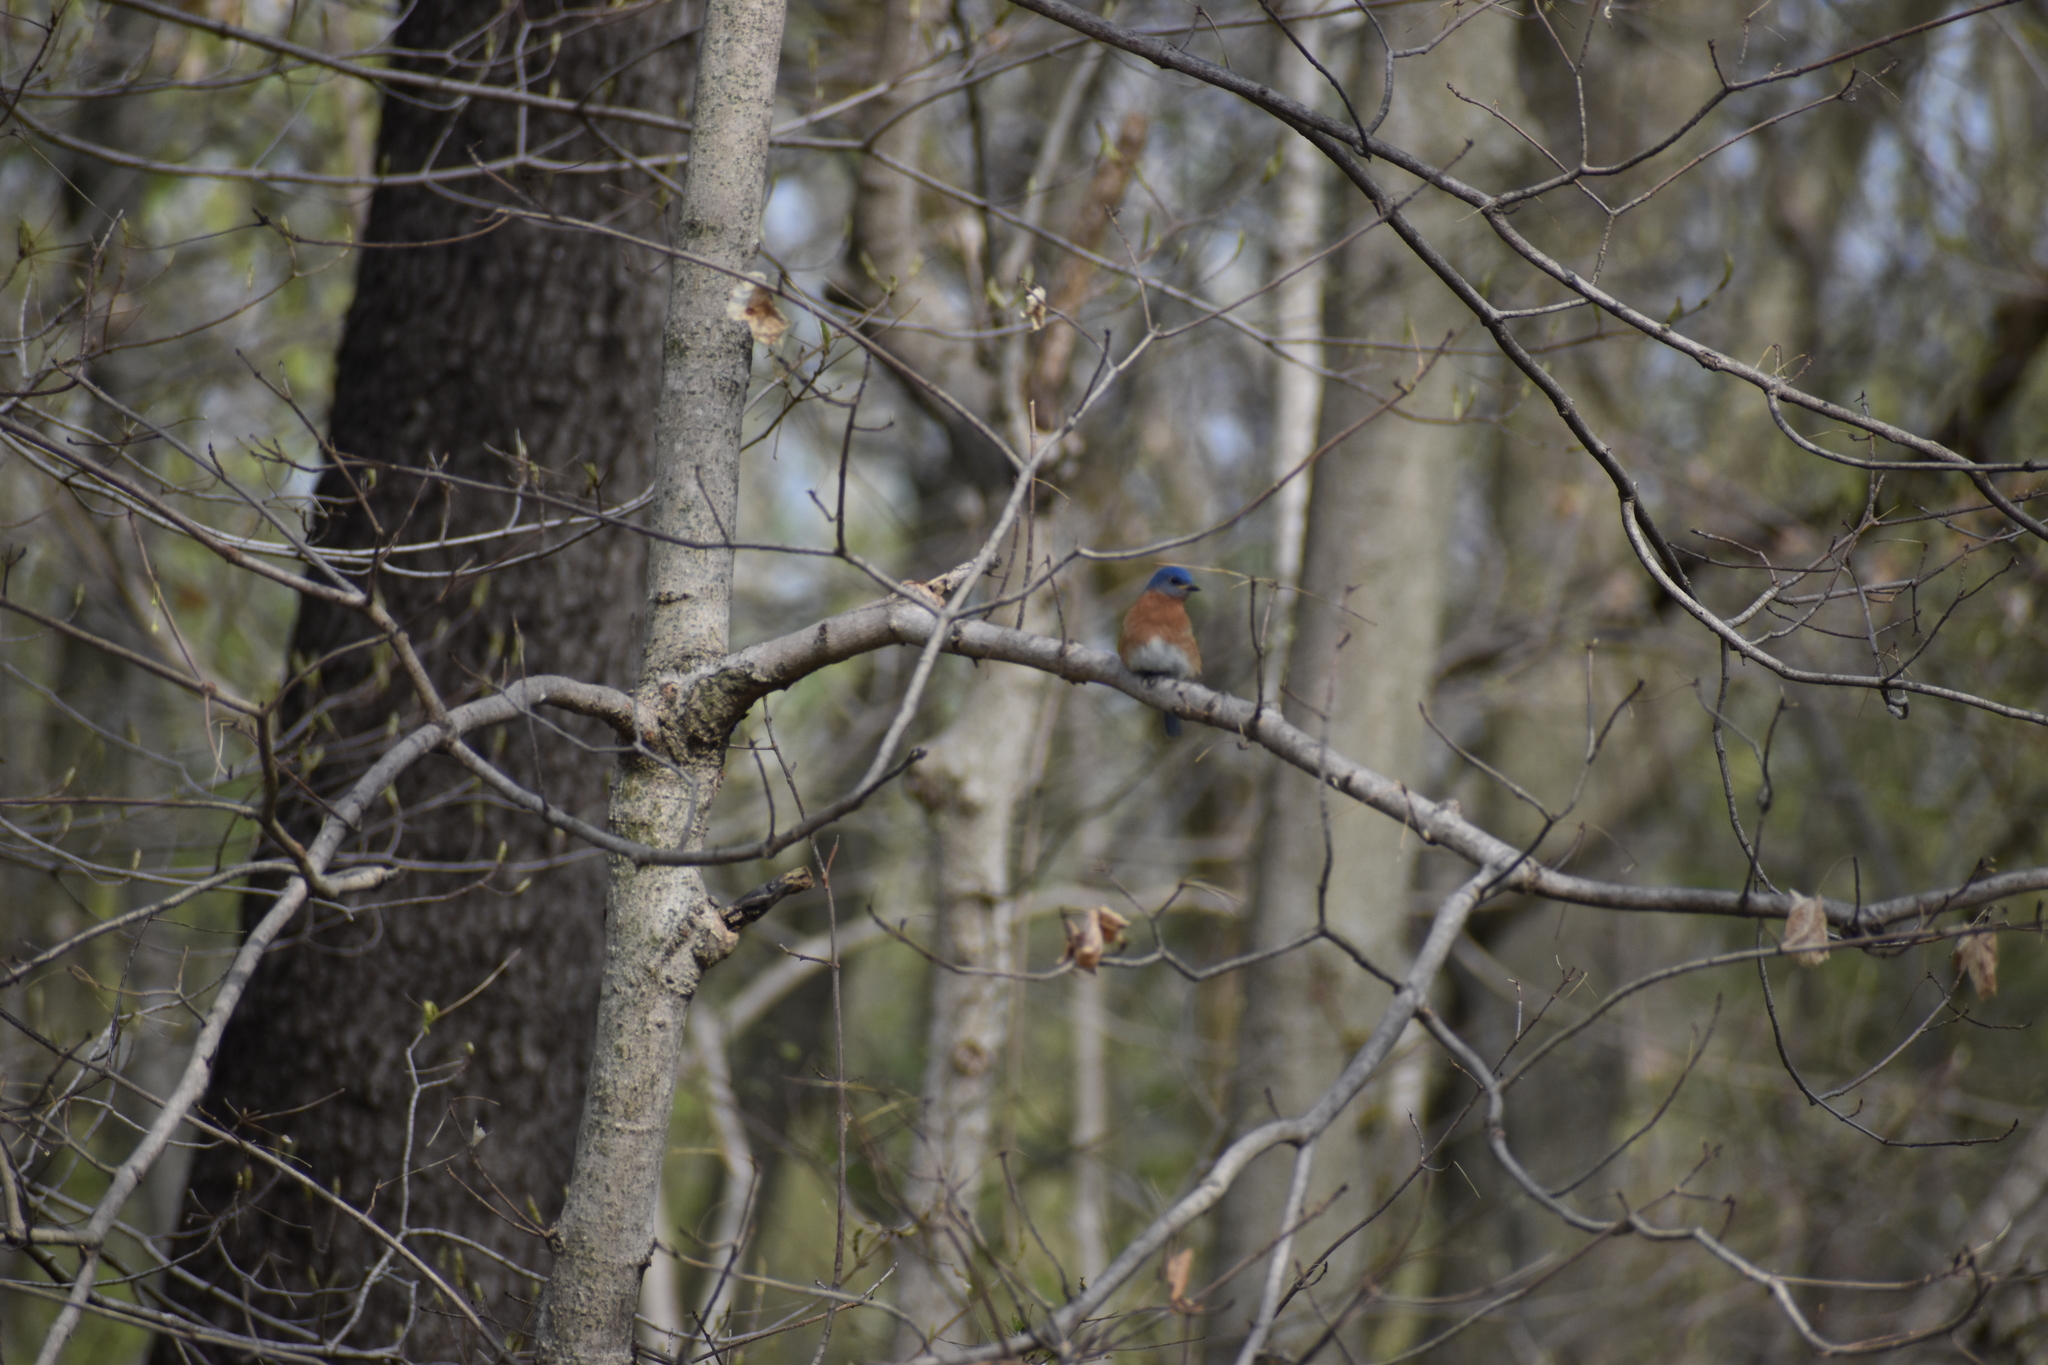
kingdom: Animalia
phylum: Chordata
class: Aves
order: Passeriformes
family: Turdidae
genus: Sialia
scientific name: Sialia sialis
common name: Eastern bluebird
